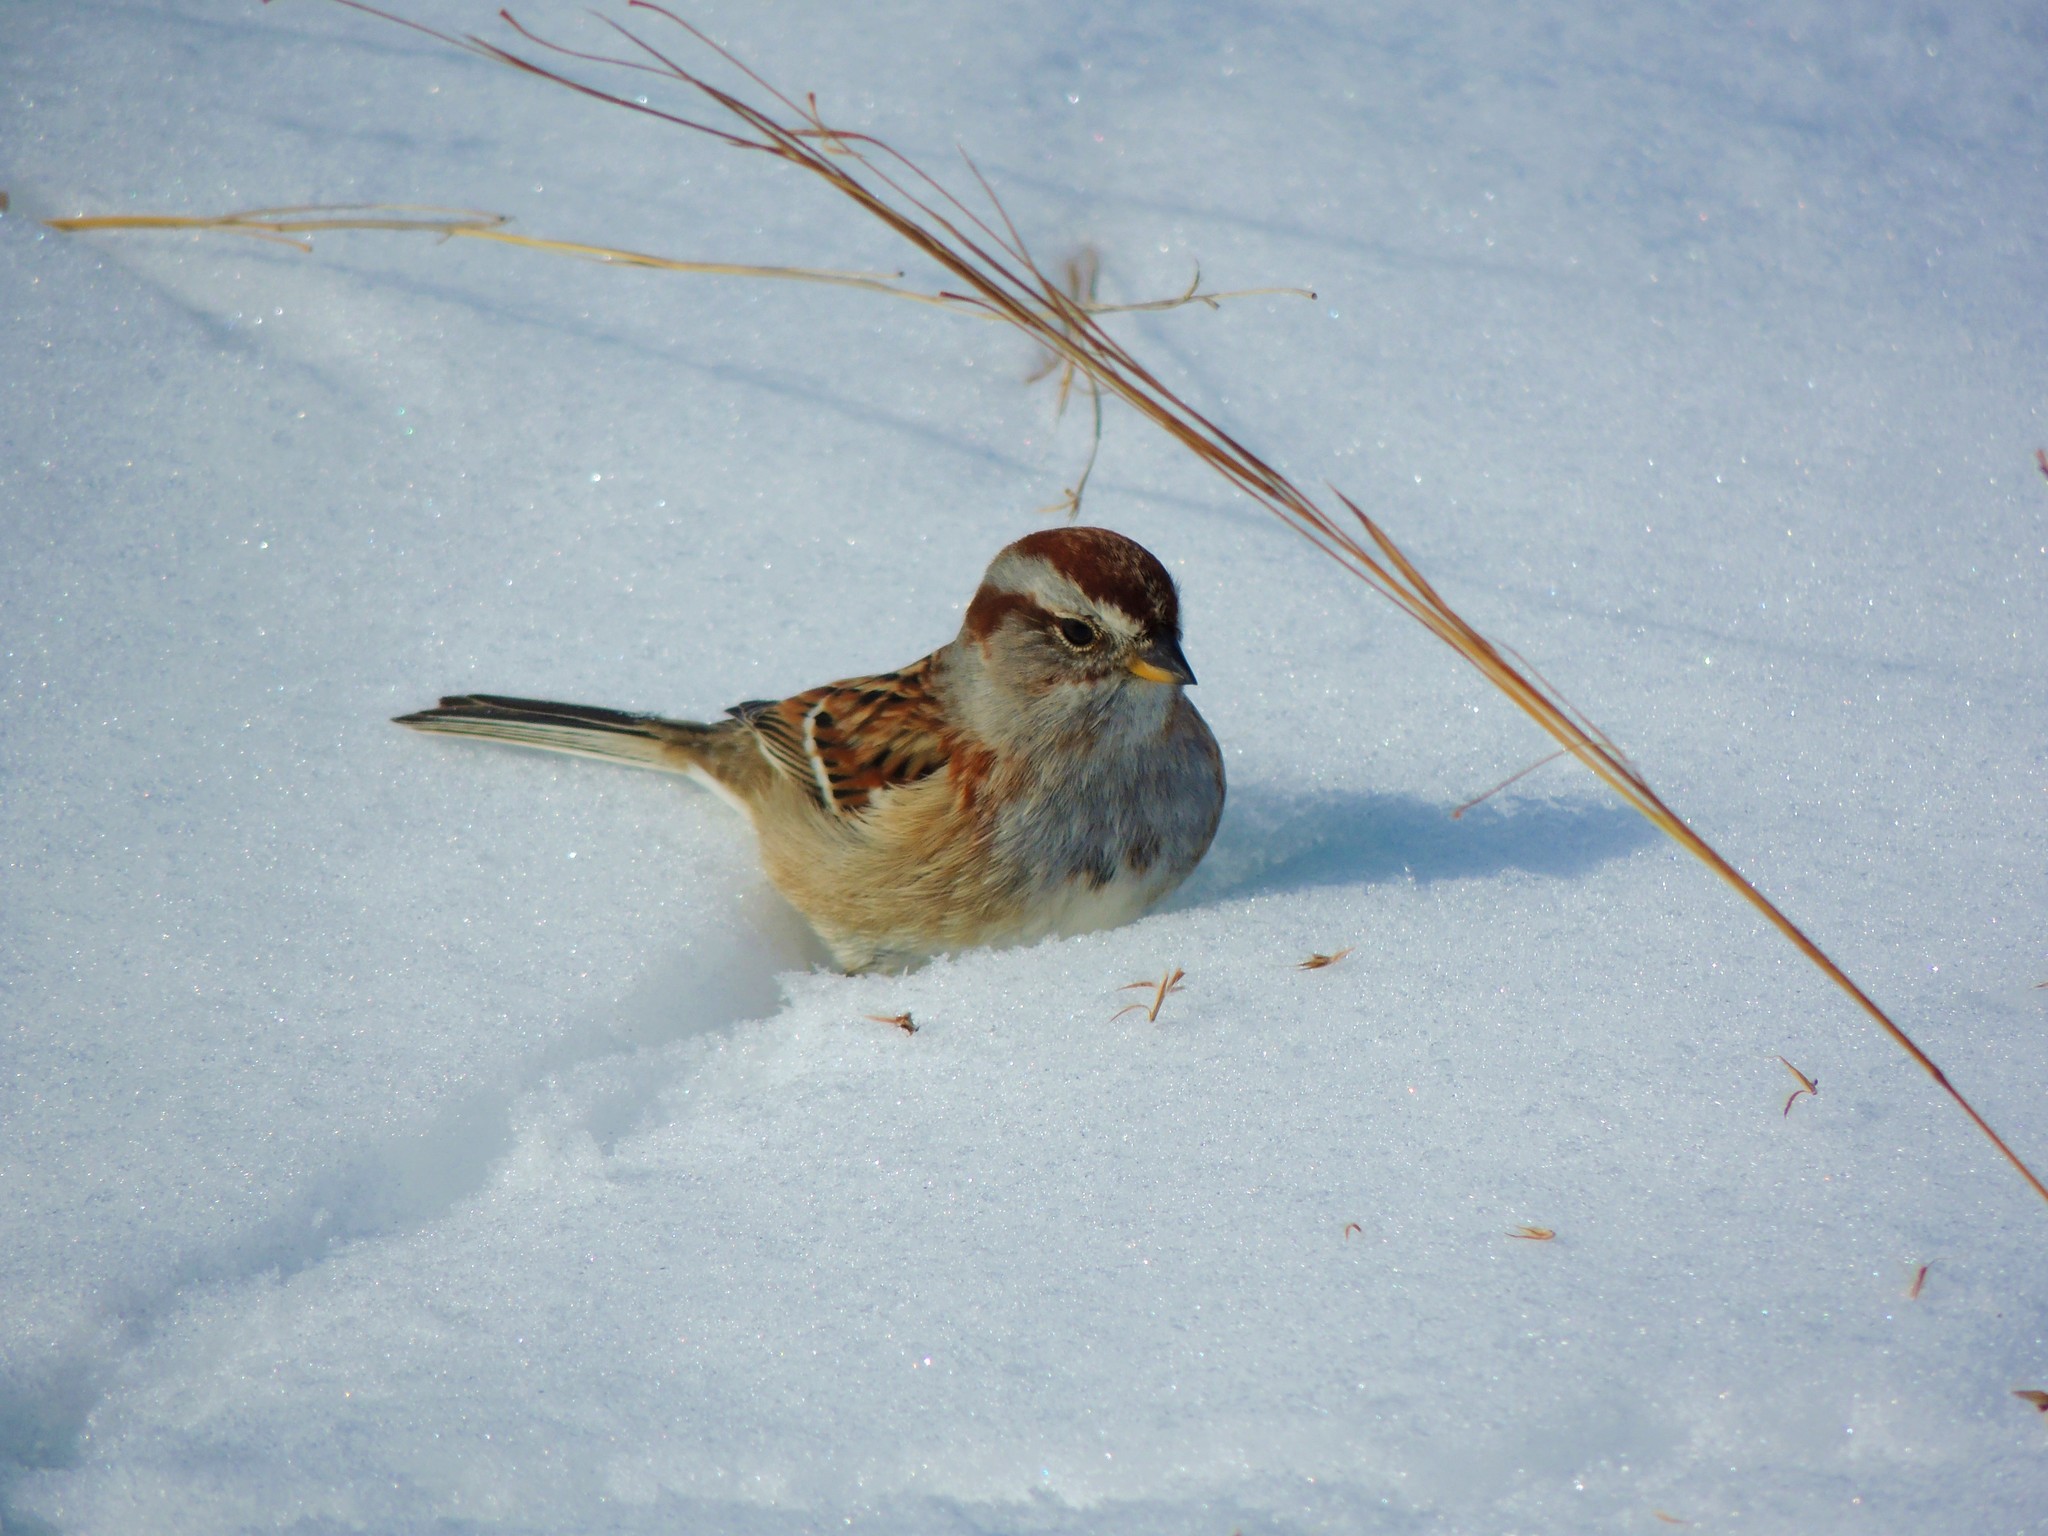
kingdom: Animalia
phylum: Chordata
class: Aves
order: Passeriformes
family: Passerellidae
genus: Spizelloides
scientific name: Spizelloides arborea
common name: American tree sparrow
